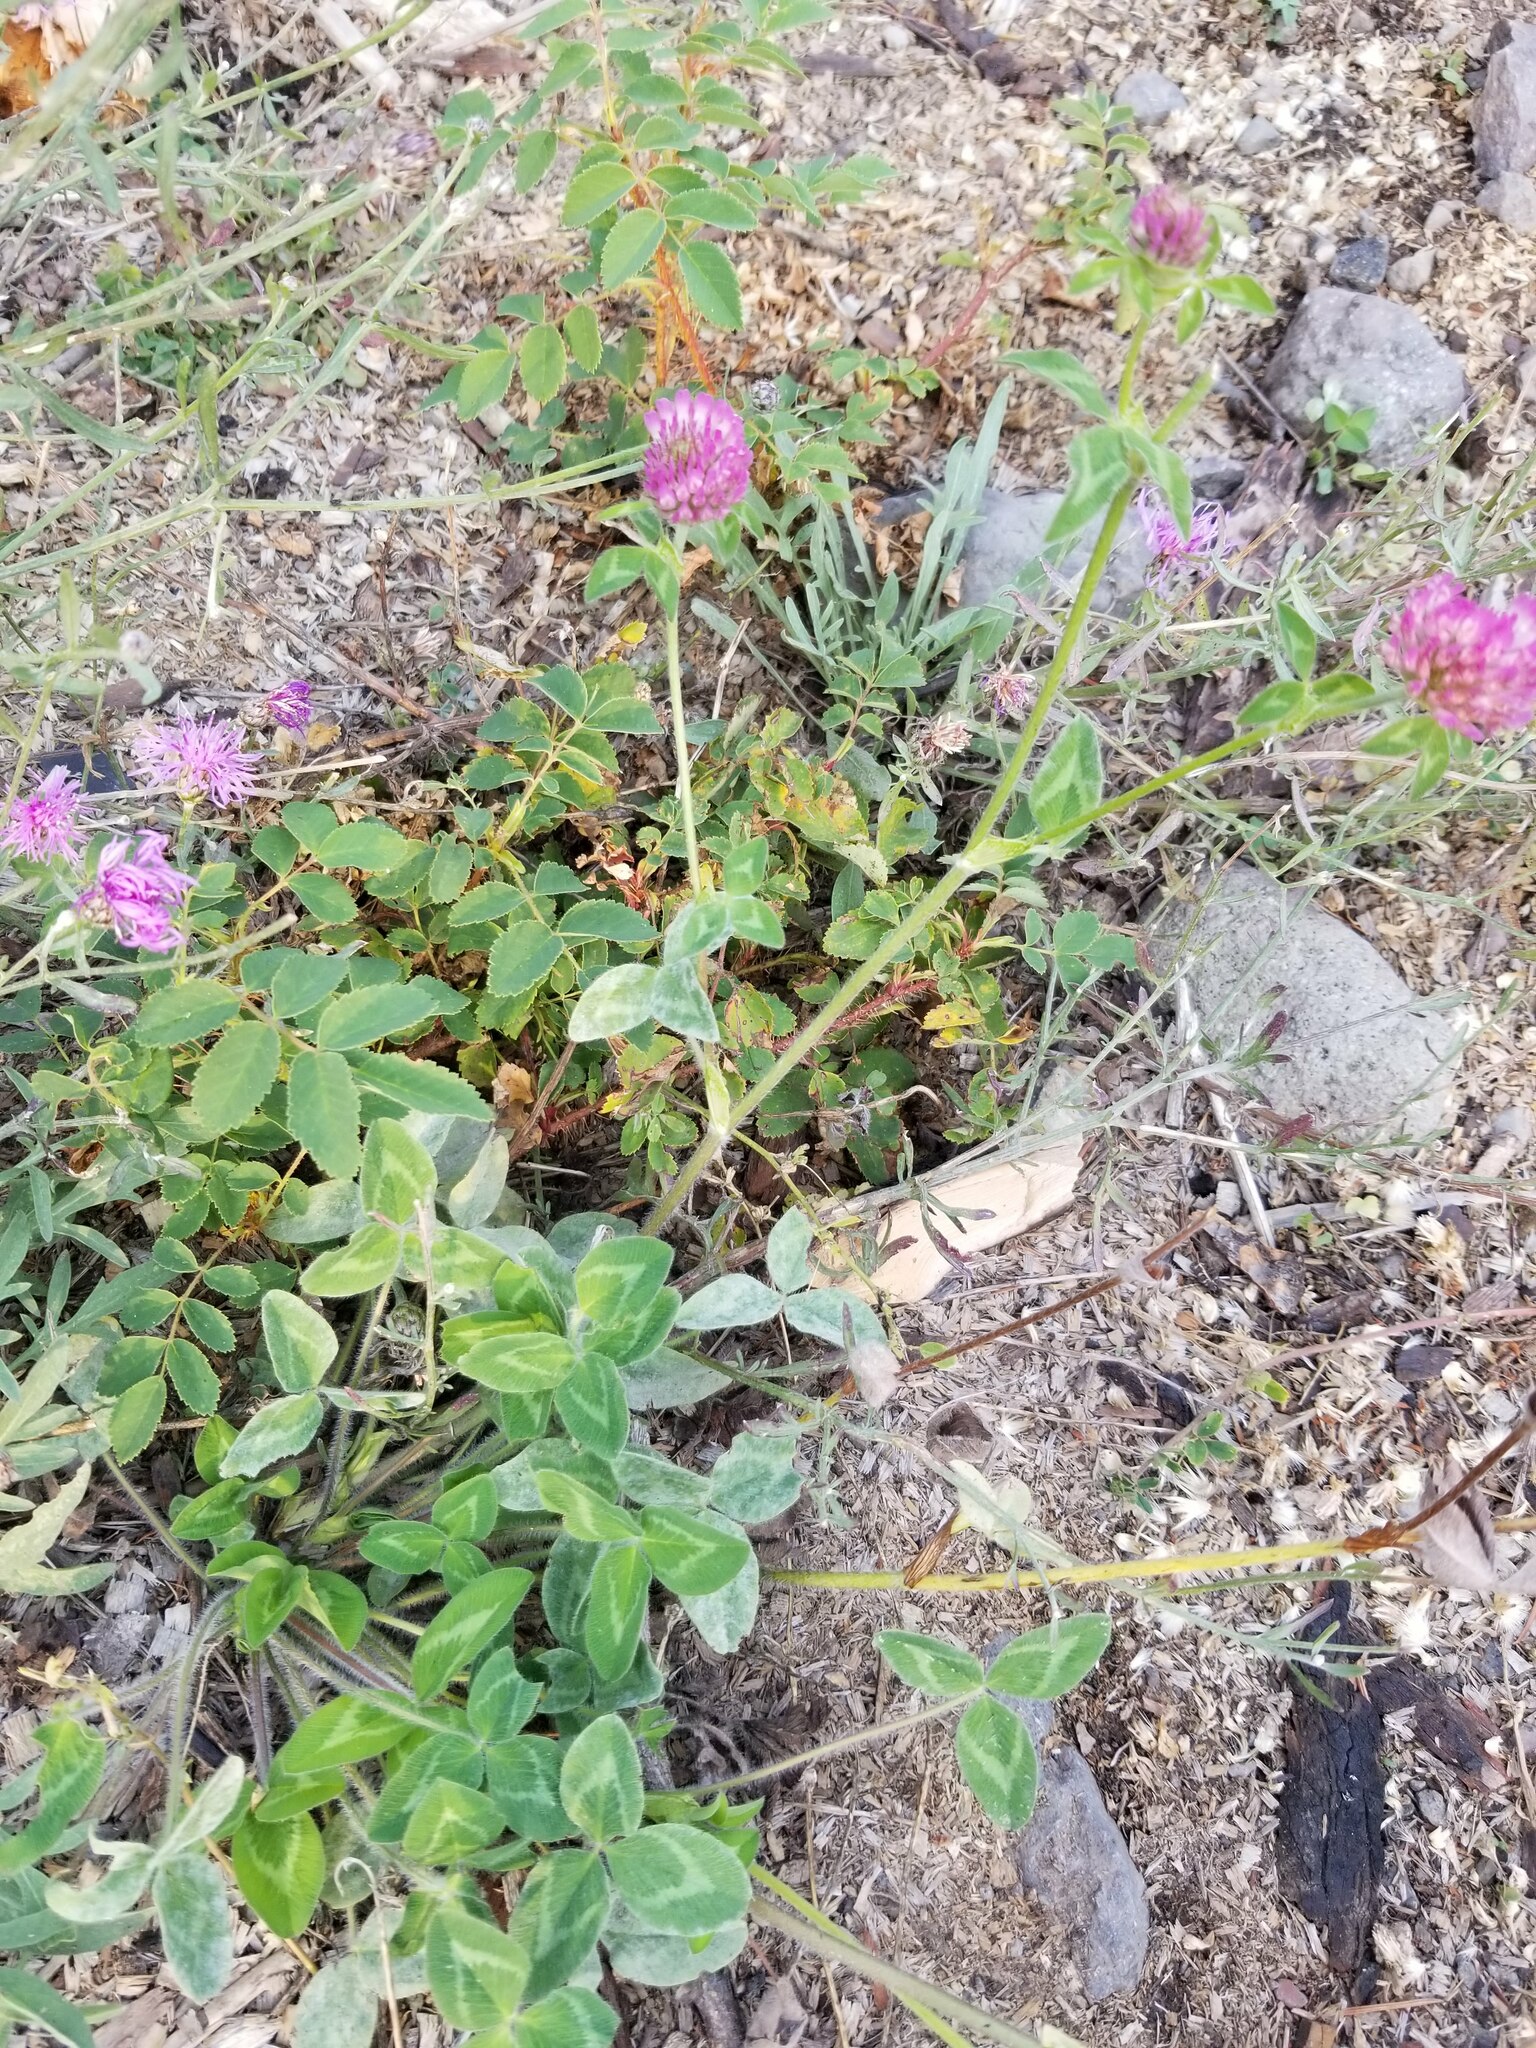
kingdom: Plantae
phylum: Tracheophyta
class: Magnoliopsida
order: Fabales
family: Fabaceae
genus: Trifolium
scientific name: Trifolium pratense
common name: Red clover
